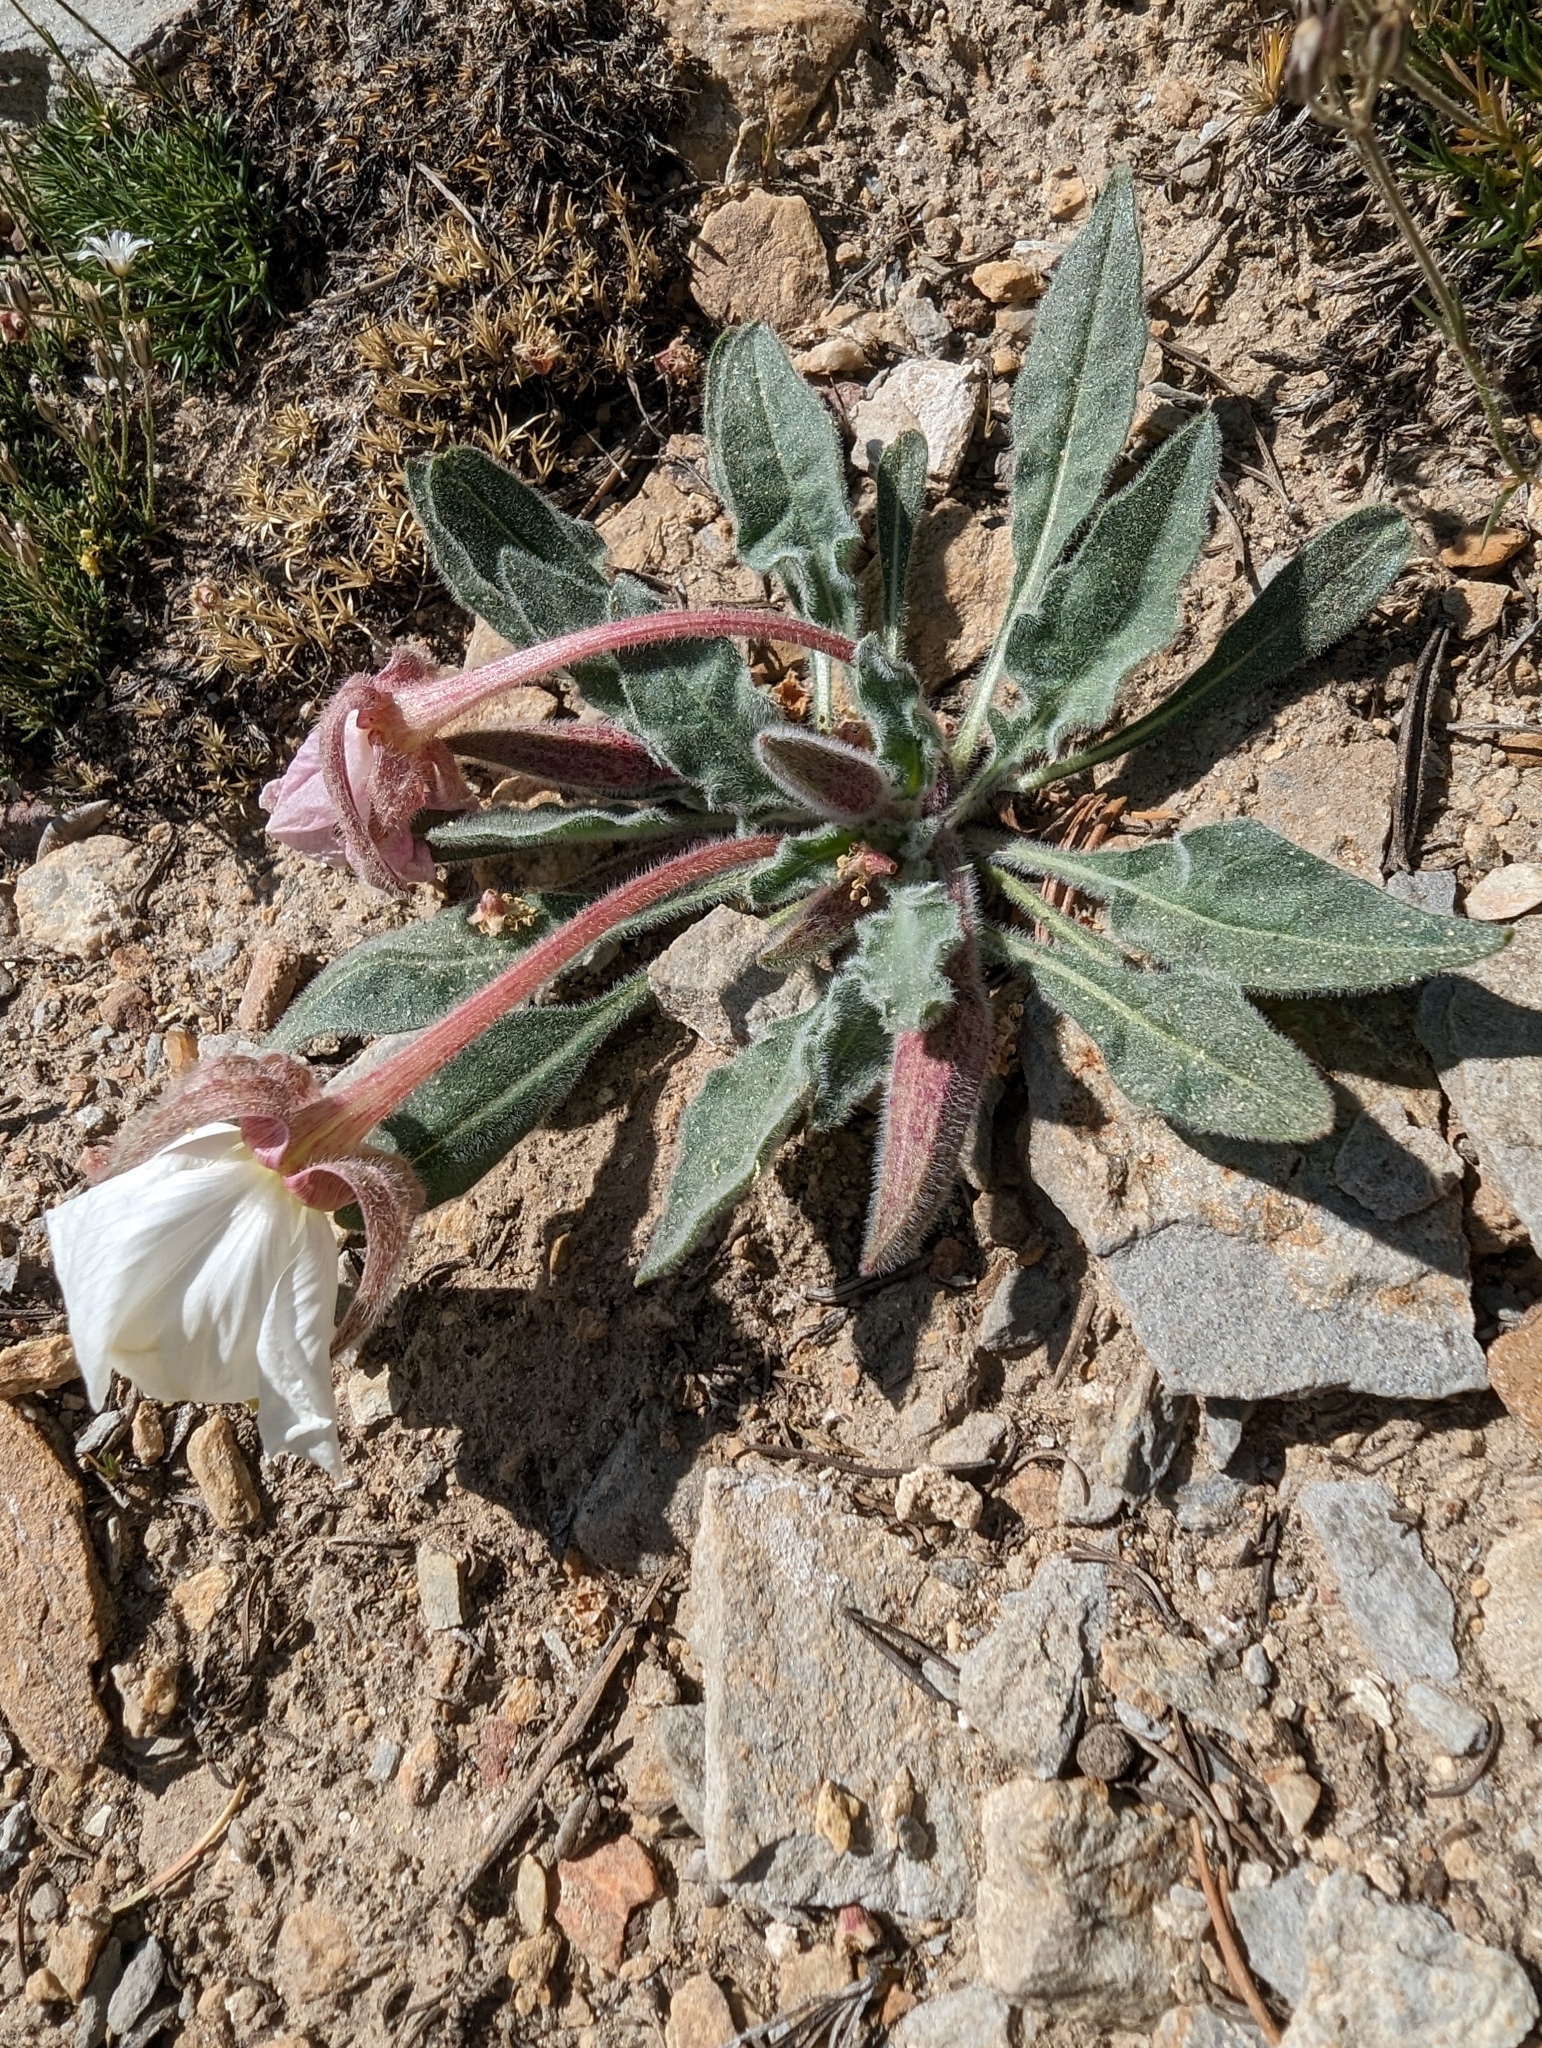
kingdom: Plantae
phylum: Tracheophyta
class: Magnoliopsida
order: Myrtales
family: Onagraceae
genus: Oenothera
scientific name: Oenothera cespitosa
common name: Tufted evening-primrose
